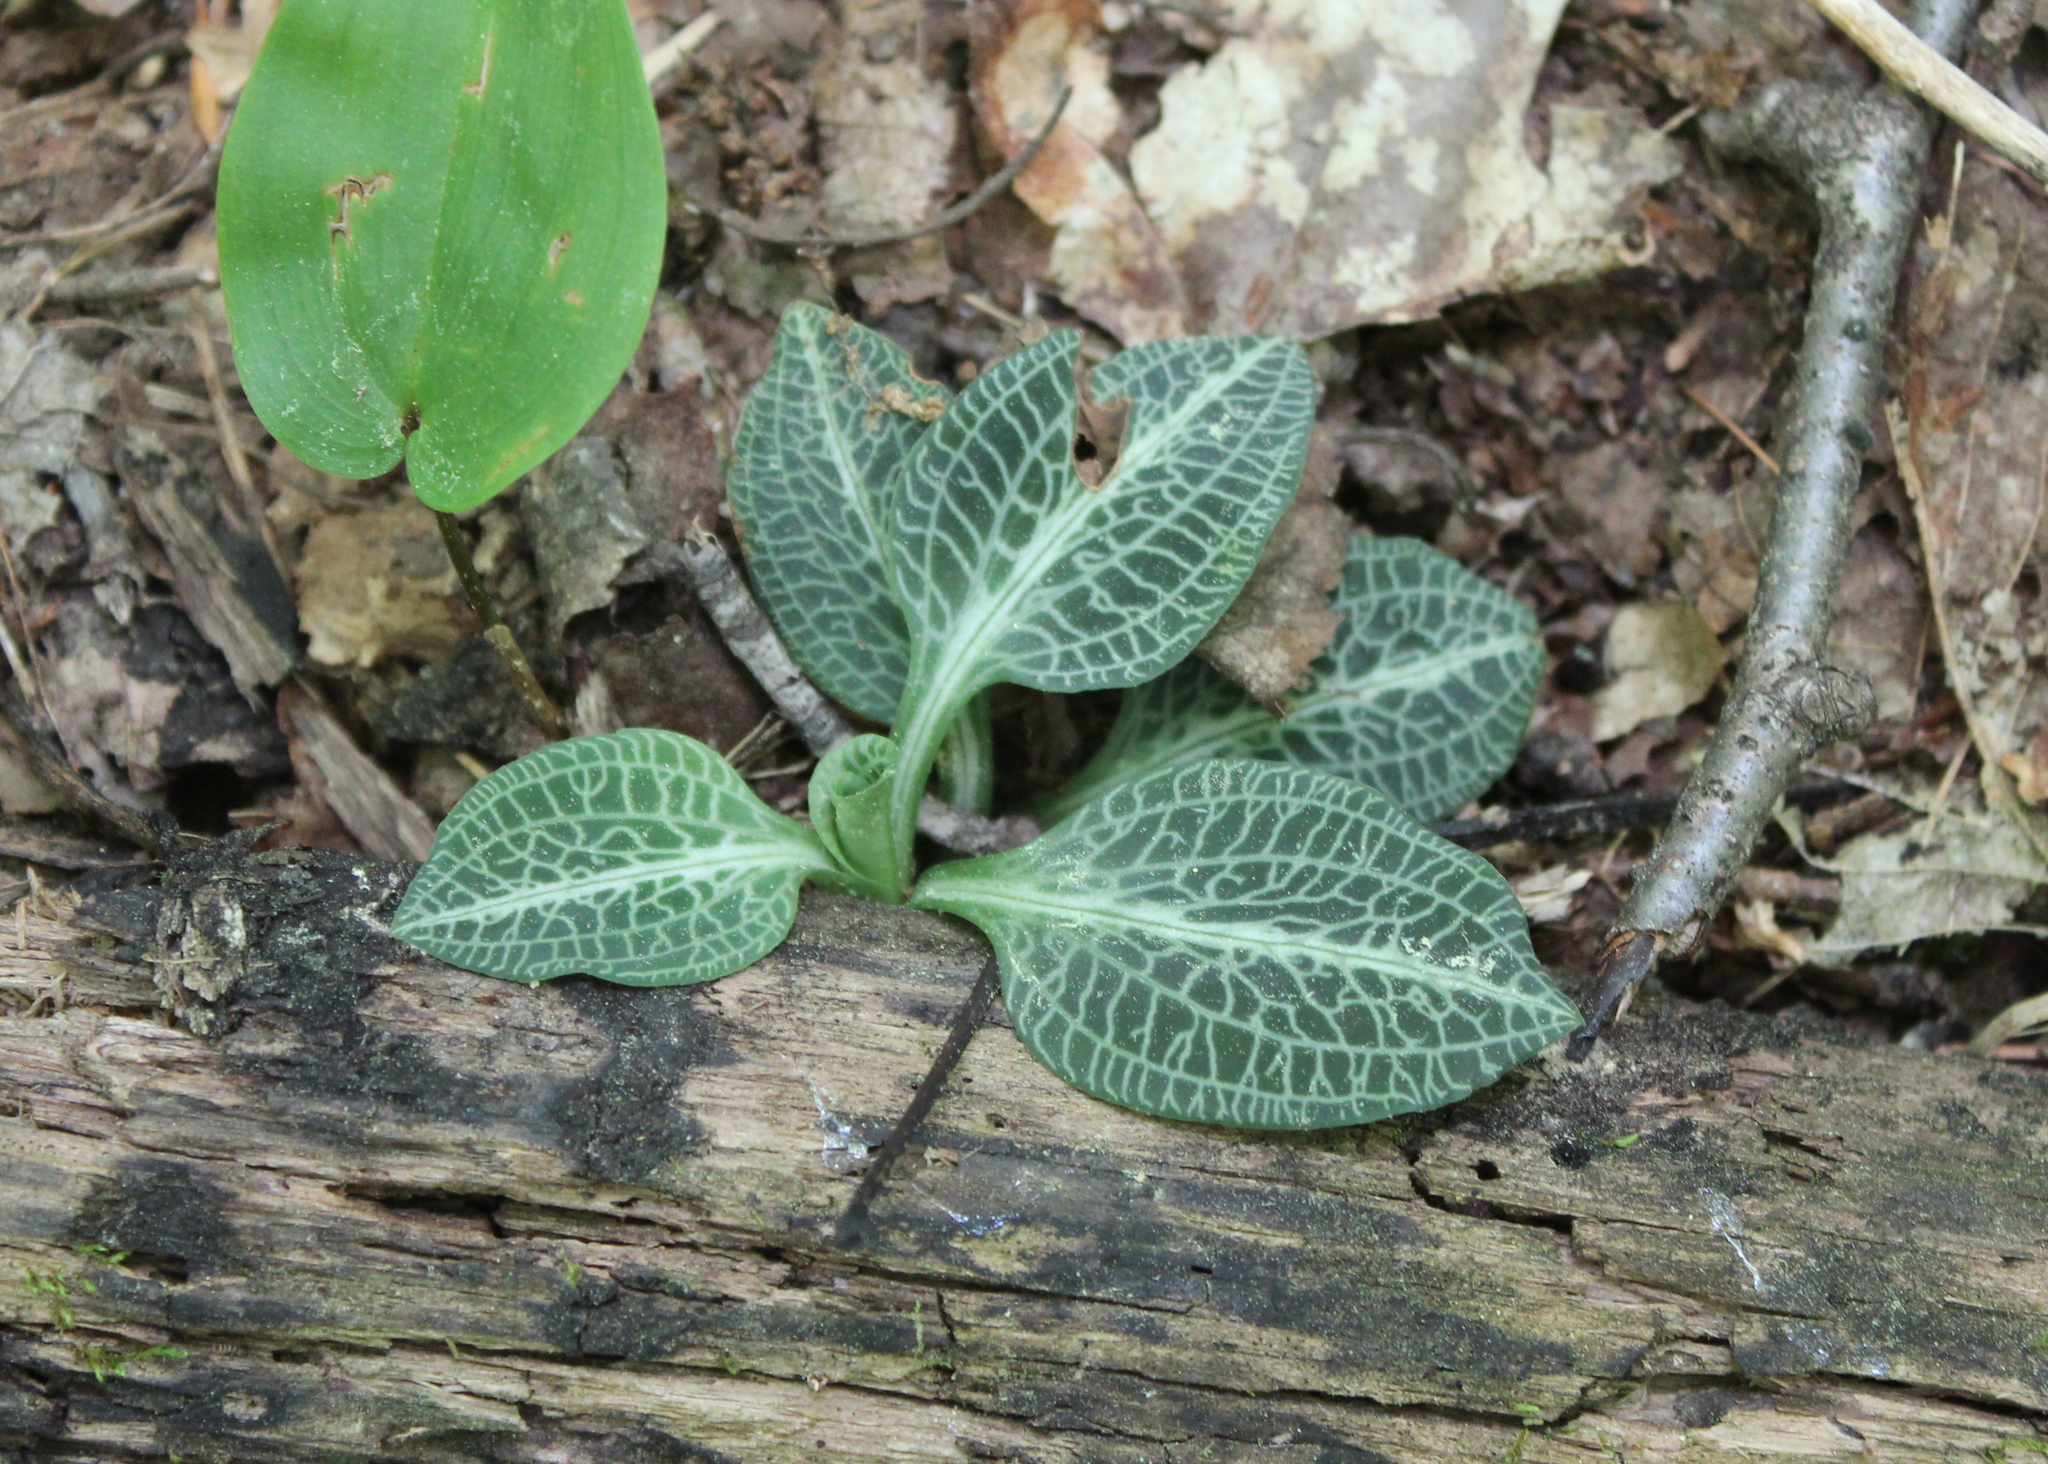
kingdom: Plantae
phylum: Tracheophyta
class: Liliopsida
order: Asparagales
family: Orchidaceae
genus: Goodyera
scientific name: Goodyera pubescens
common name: Downy rattlesnake-plantain
